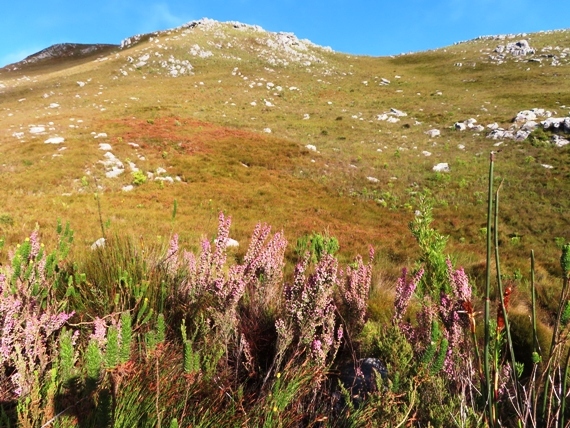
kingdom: Plantae
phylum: Tracheophyta
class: Magnoliopsida
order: Ericales
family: Ericaceae
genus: Erica
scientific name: Erica condensata
